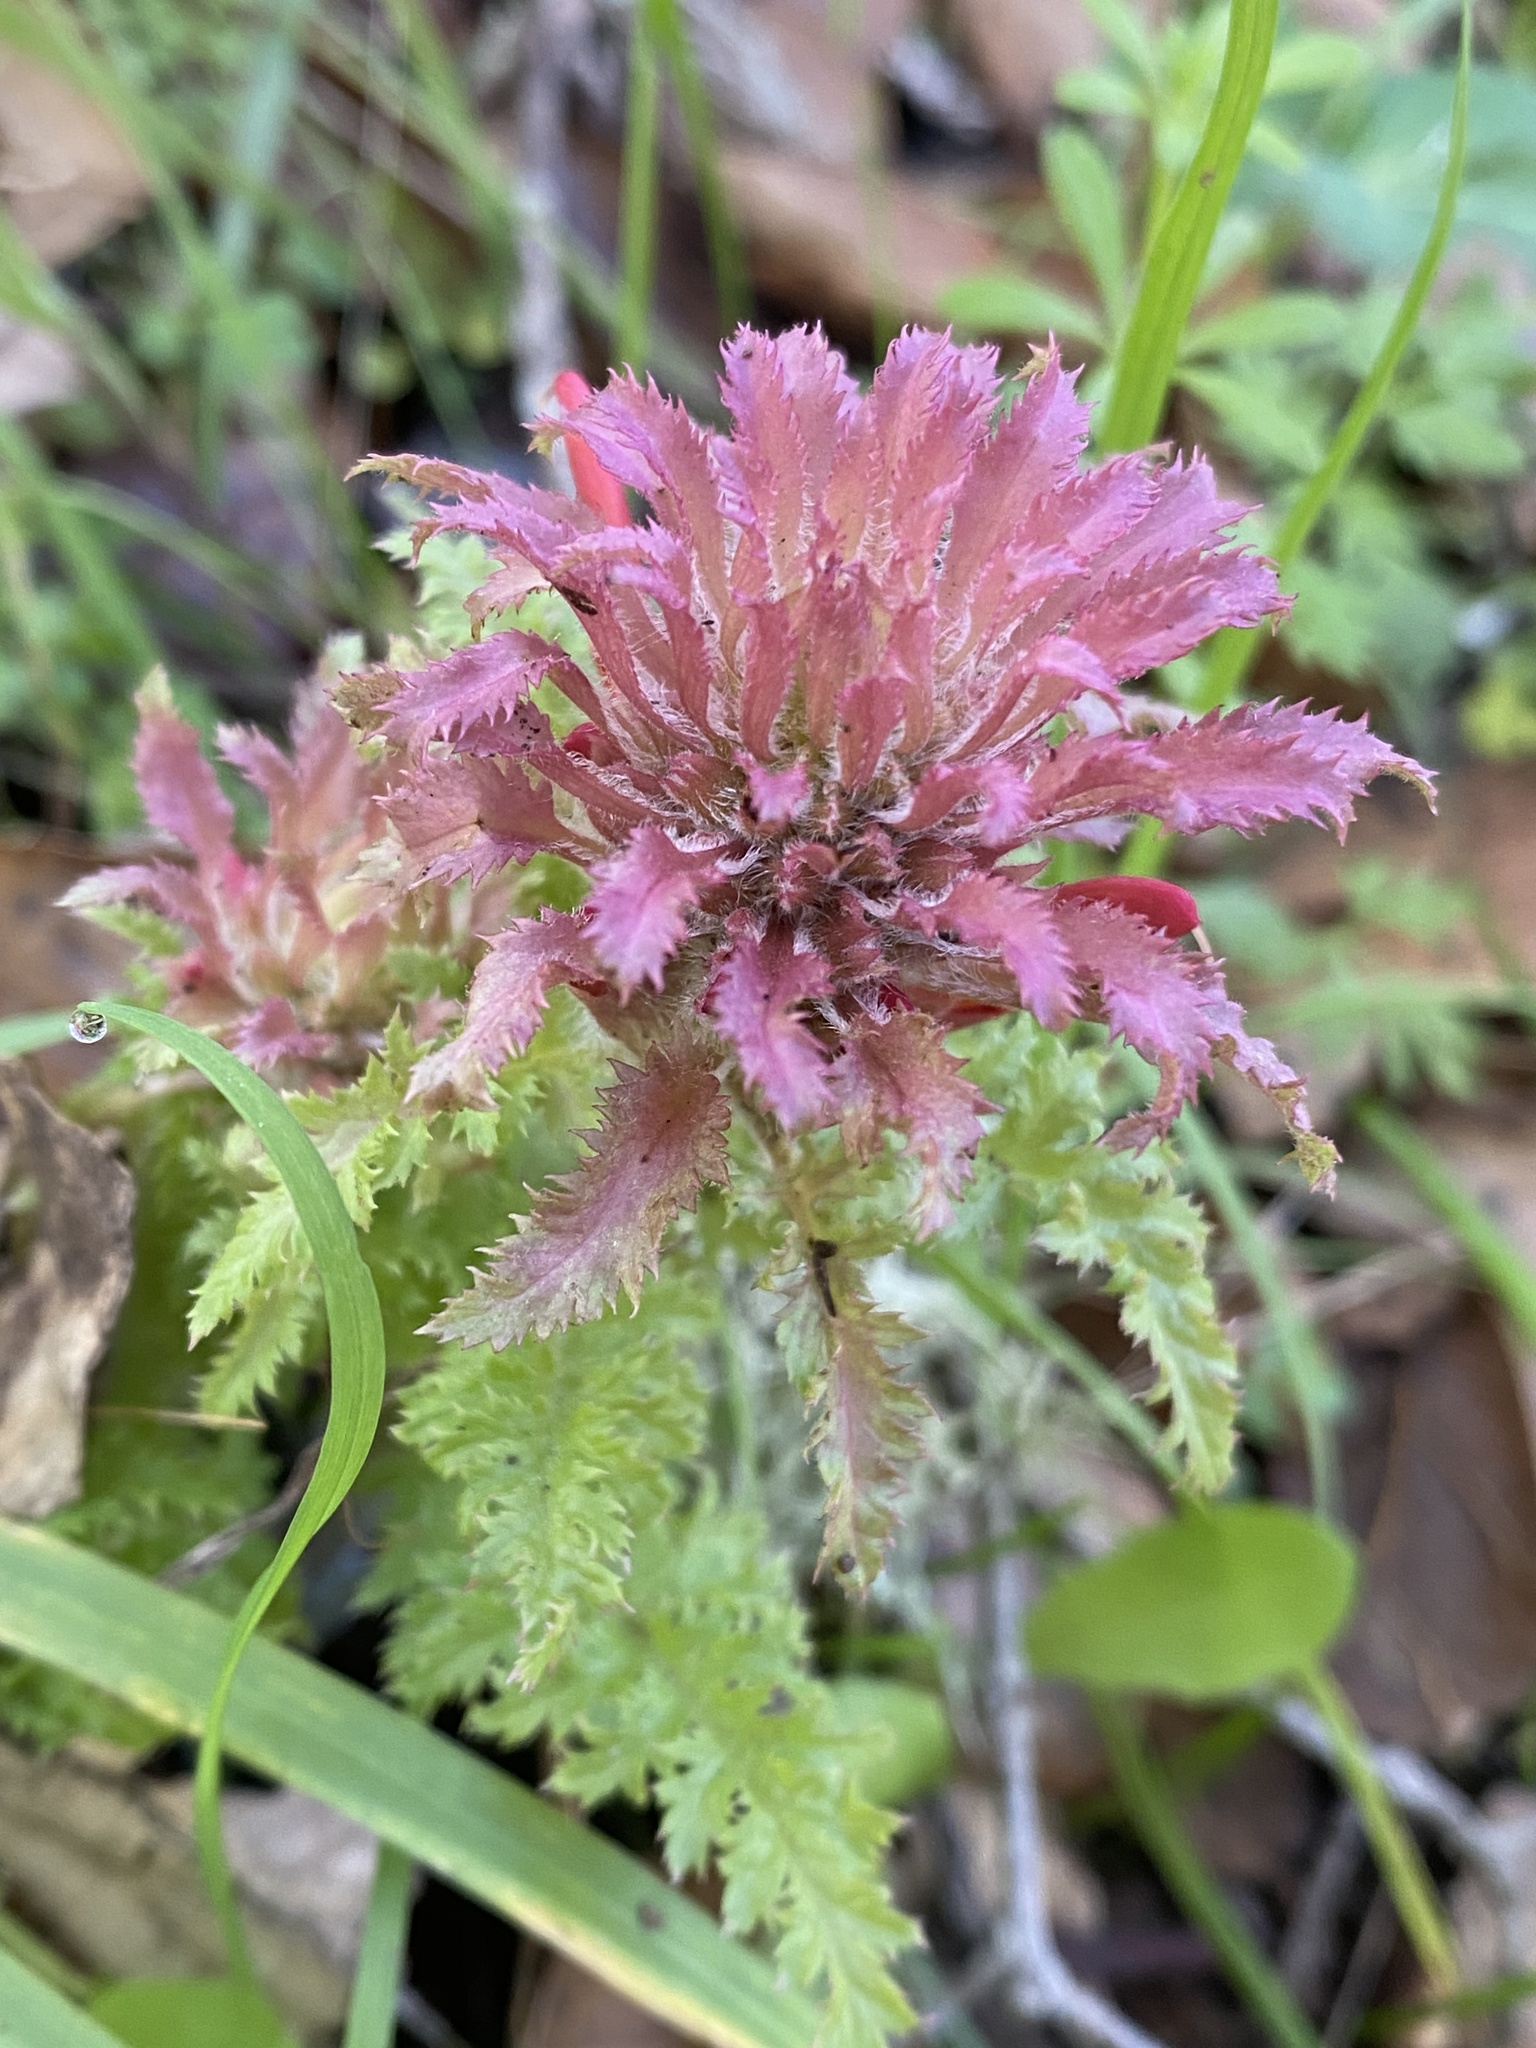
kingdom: Plantae
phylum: Tracheophyta
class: Magnoliopsida
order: Lamiales
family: Orobanchaceae
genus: Pedicularis
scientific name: Pedicularis densiflora
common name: Indian warrior
